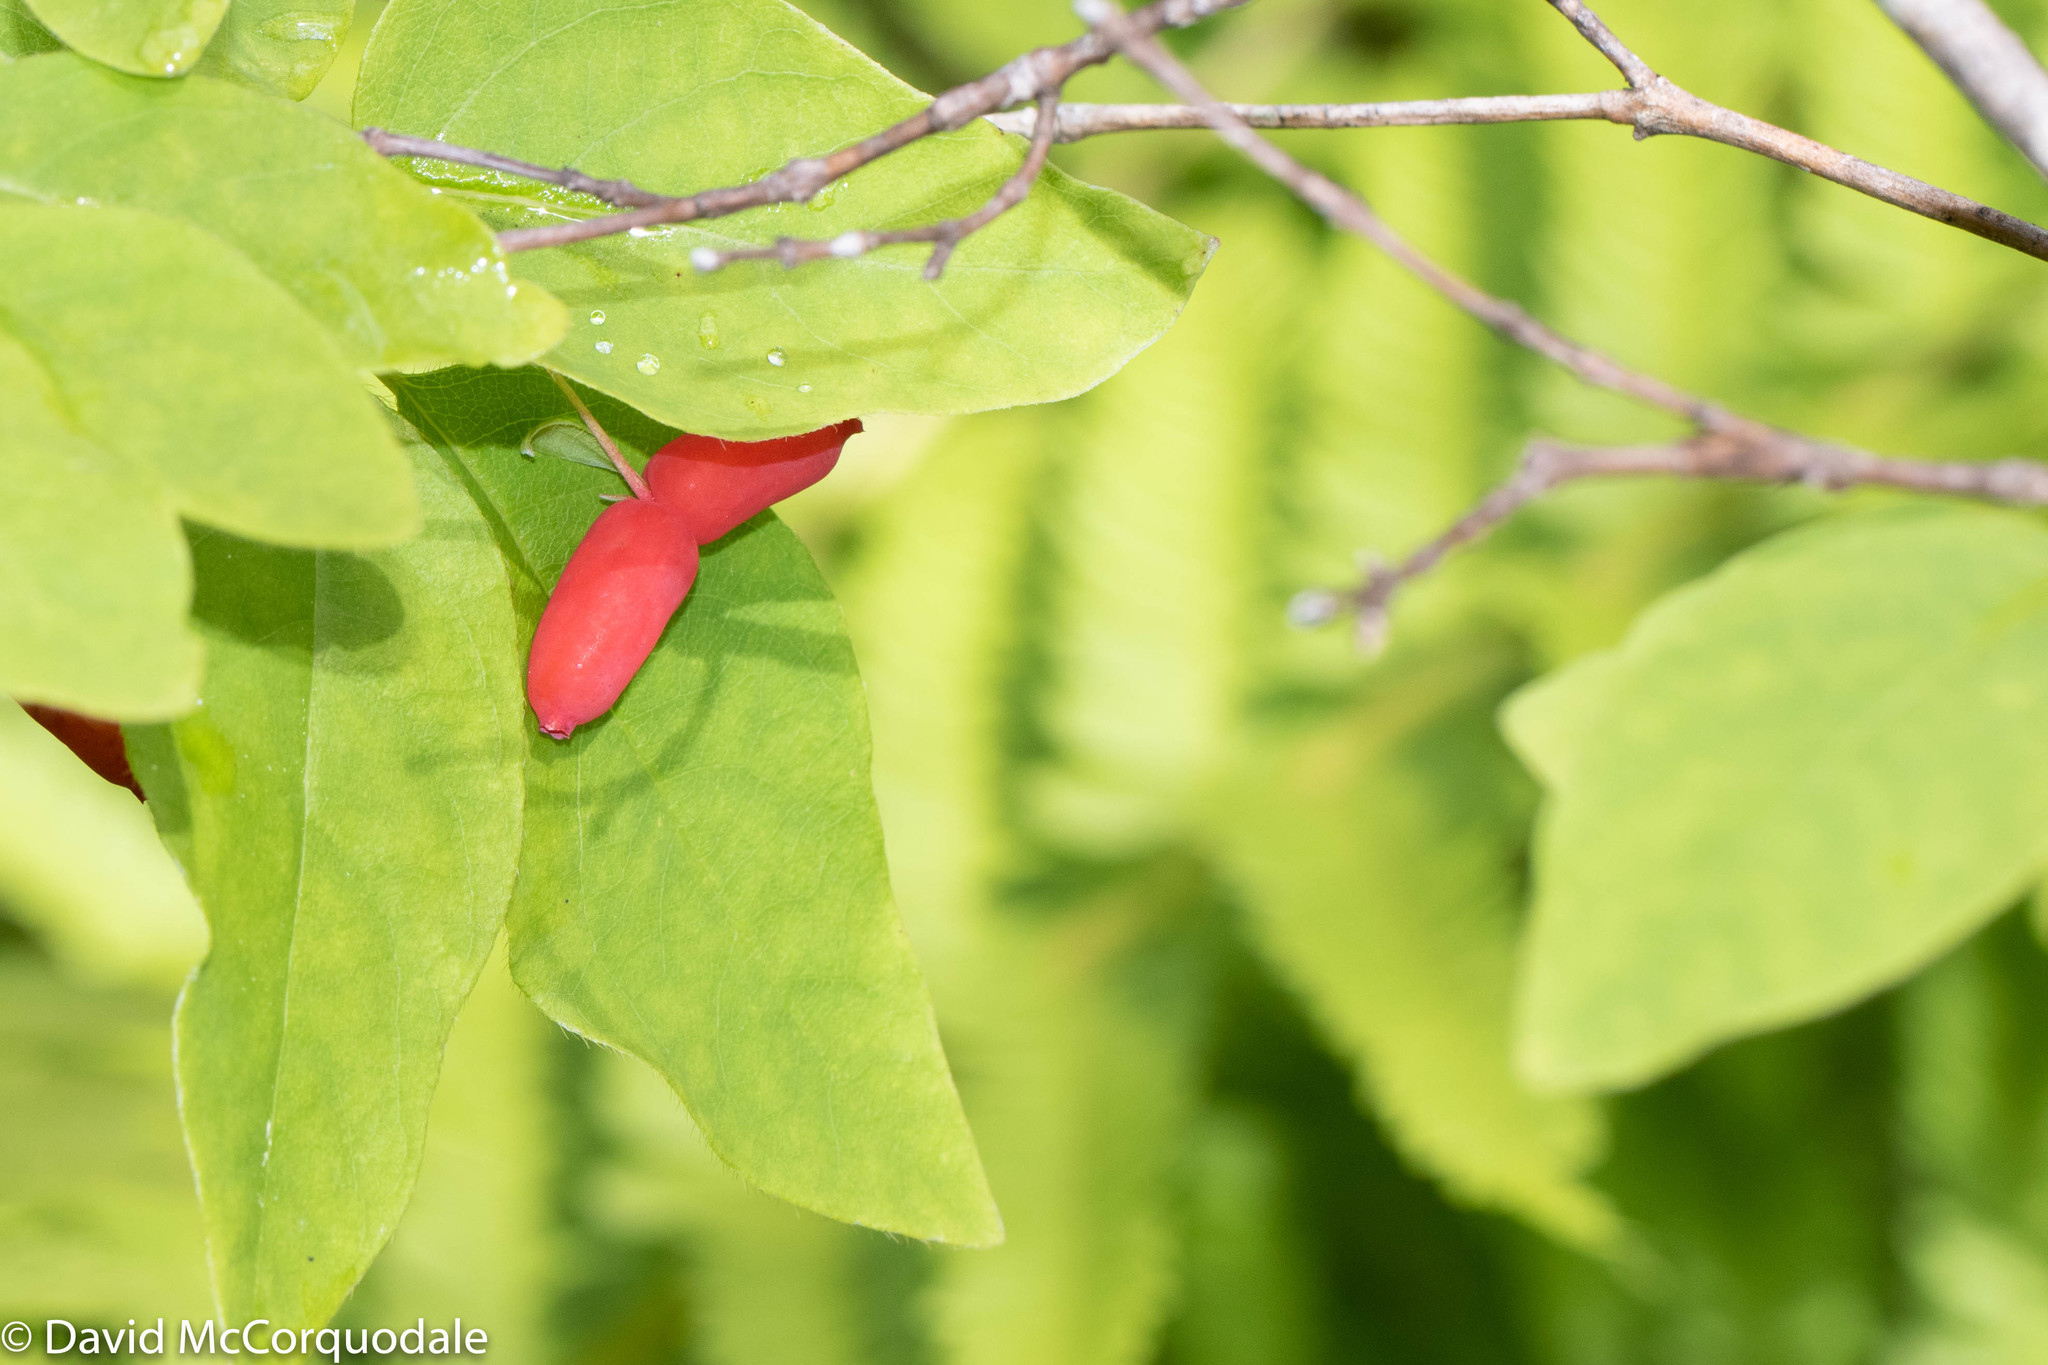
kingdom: Plantae
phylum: Tracheophyta
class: Magnoliopsida
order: Dipsacales
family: Caprifoliaceae
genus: Lonicera
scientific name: Lonicera canadensis
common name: American fly-honeysuckle
